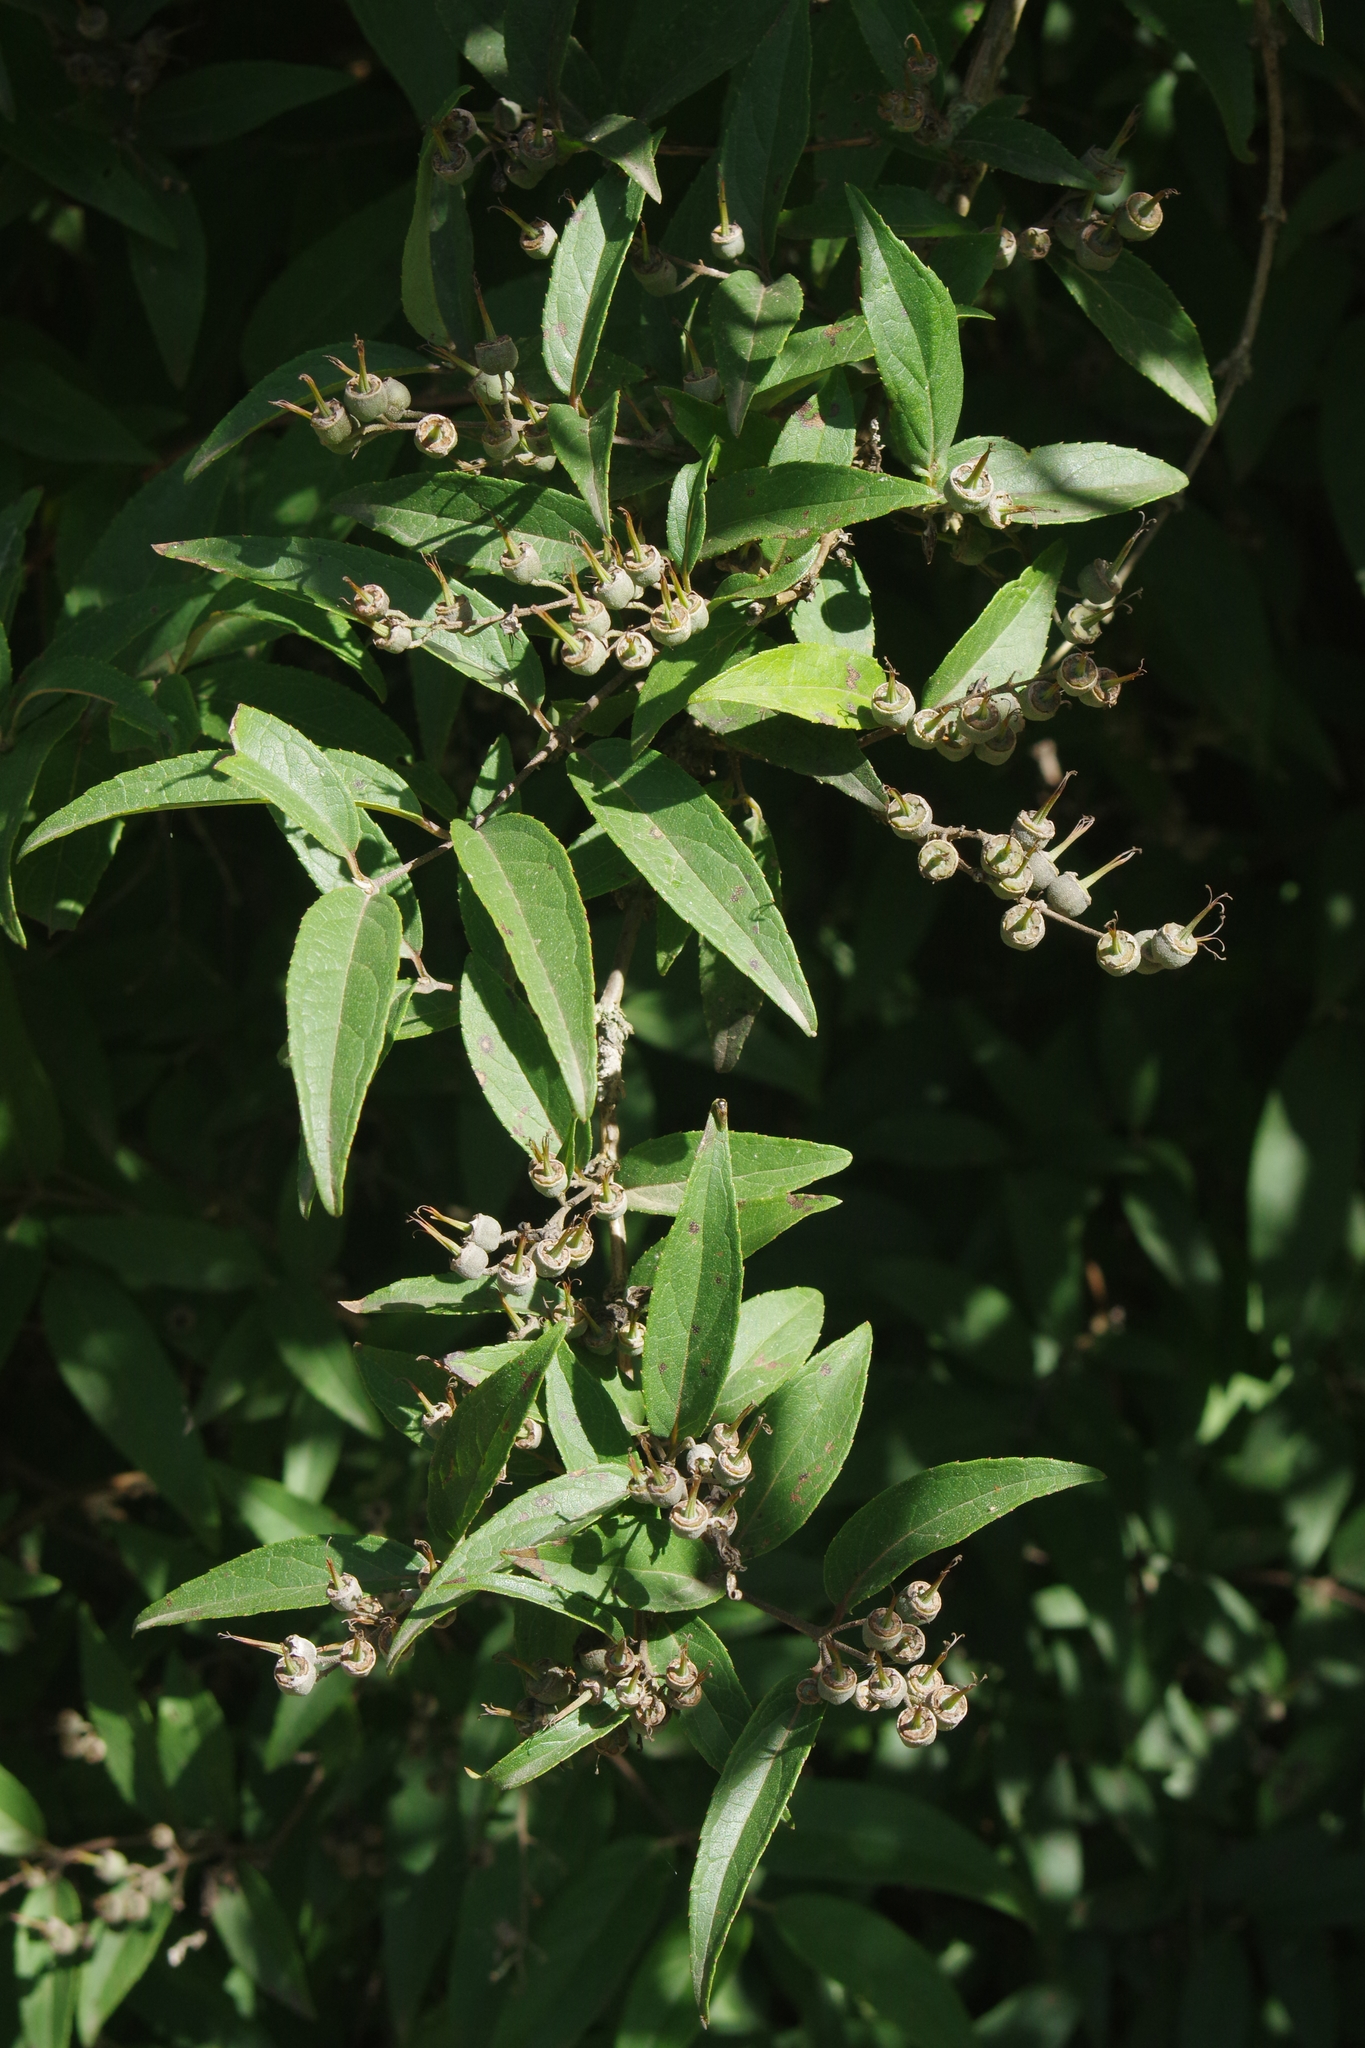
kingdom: Plantae
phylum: Tracheophyta
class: Magnoliopsida
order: Cornales
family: Hydrangeaceae
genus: Deutzia
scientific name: Deutzia pulchra
